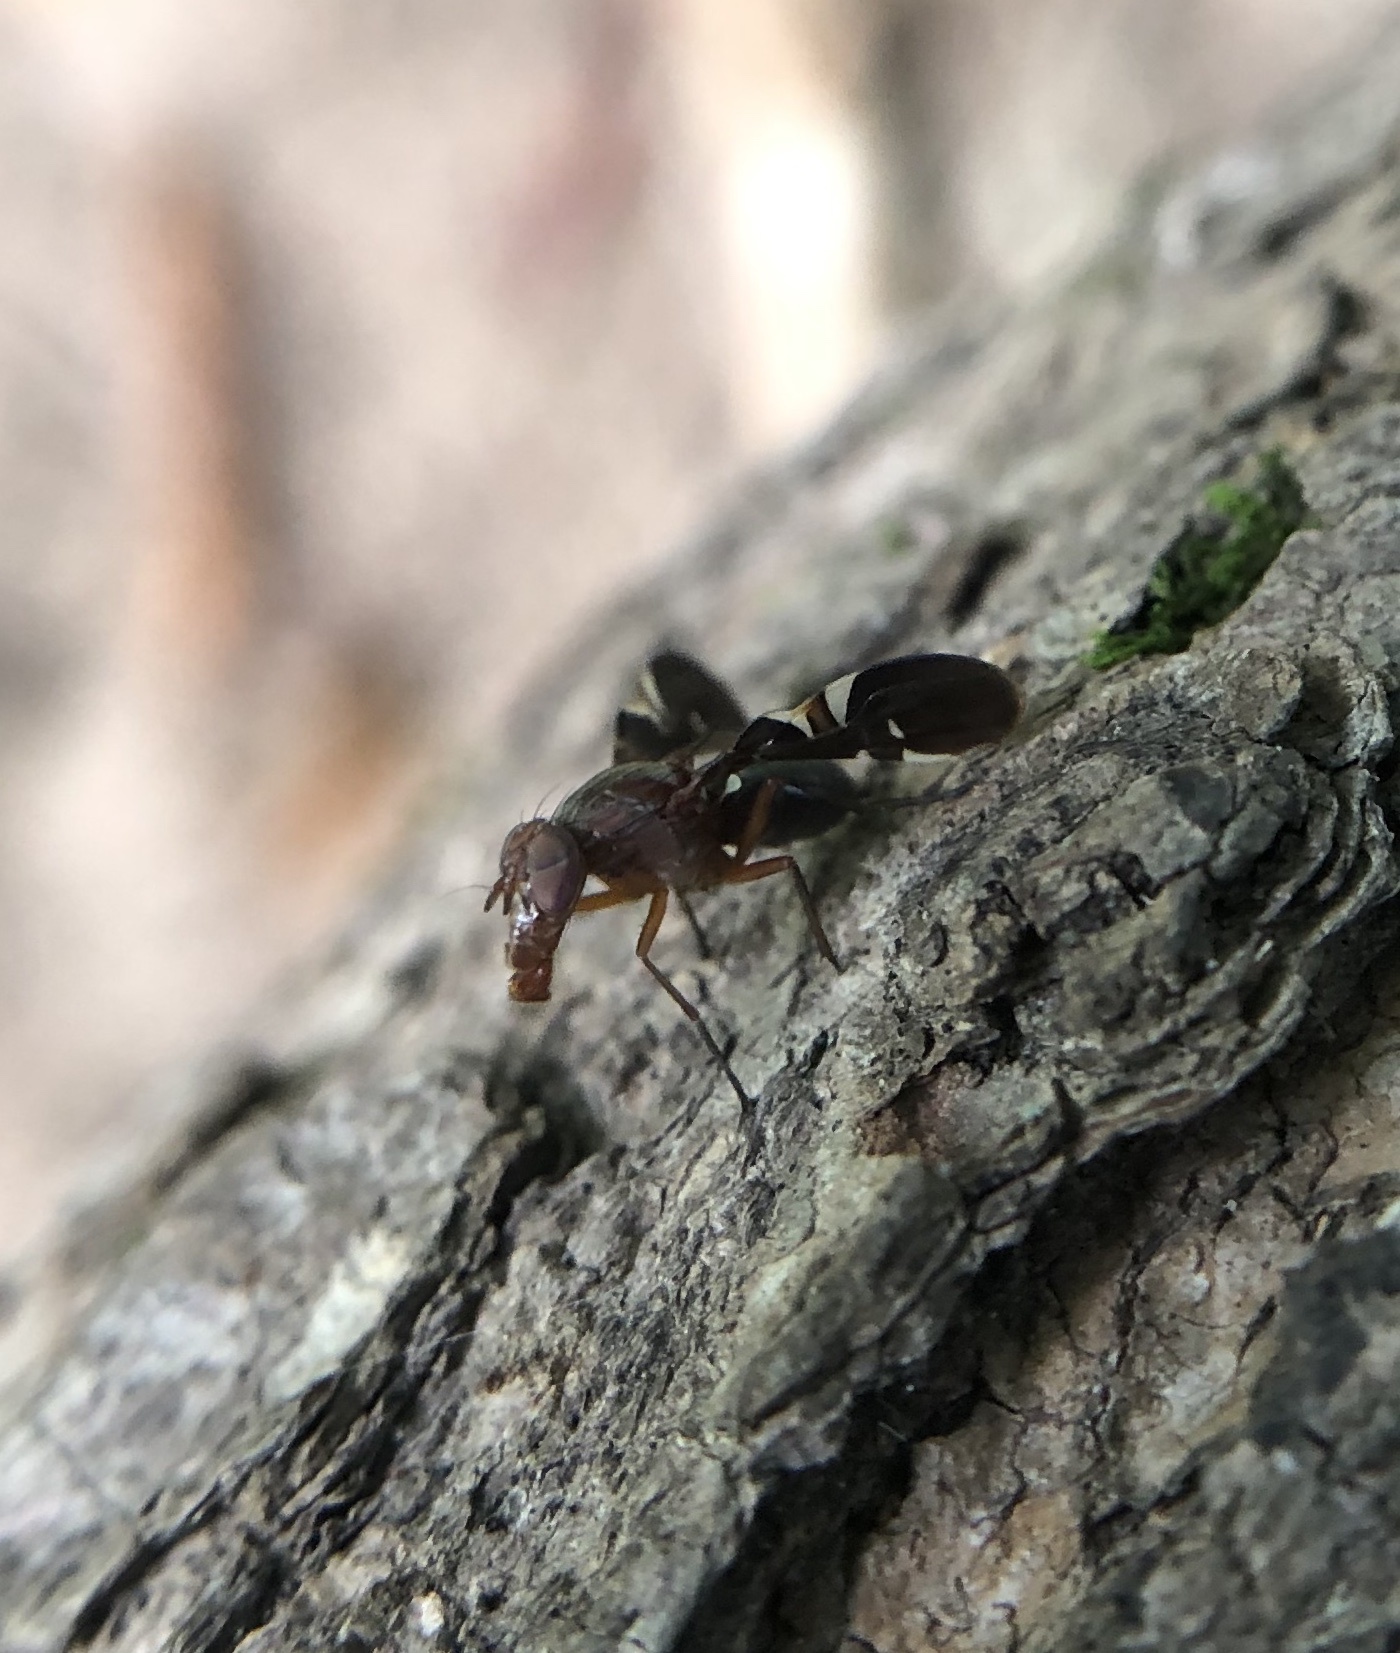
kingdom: Animalia
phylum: Arthropoda
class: Insecta
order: Diptera
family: Ulidiidae
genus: Delphinia
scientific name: Delphinia picta
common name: Common picture-winged fly
